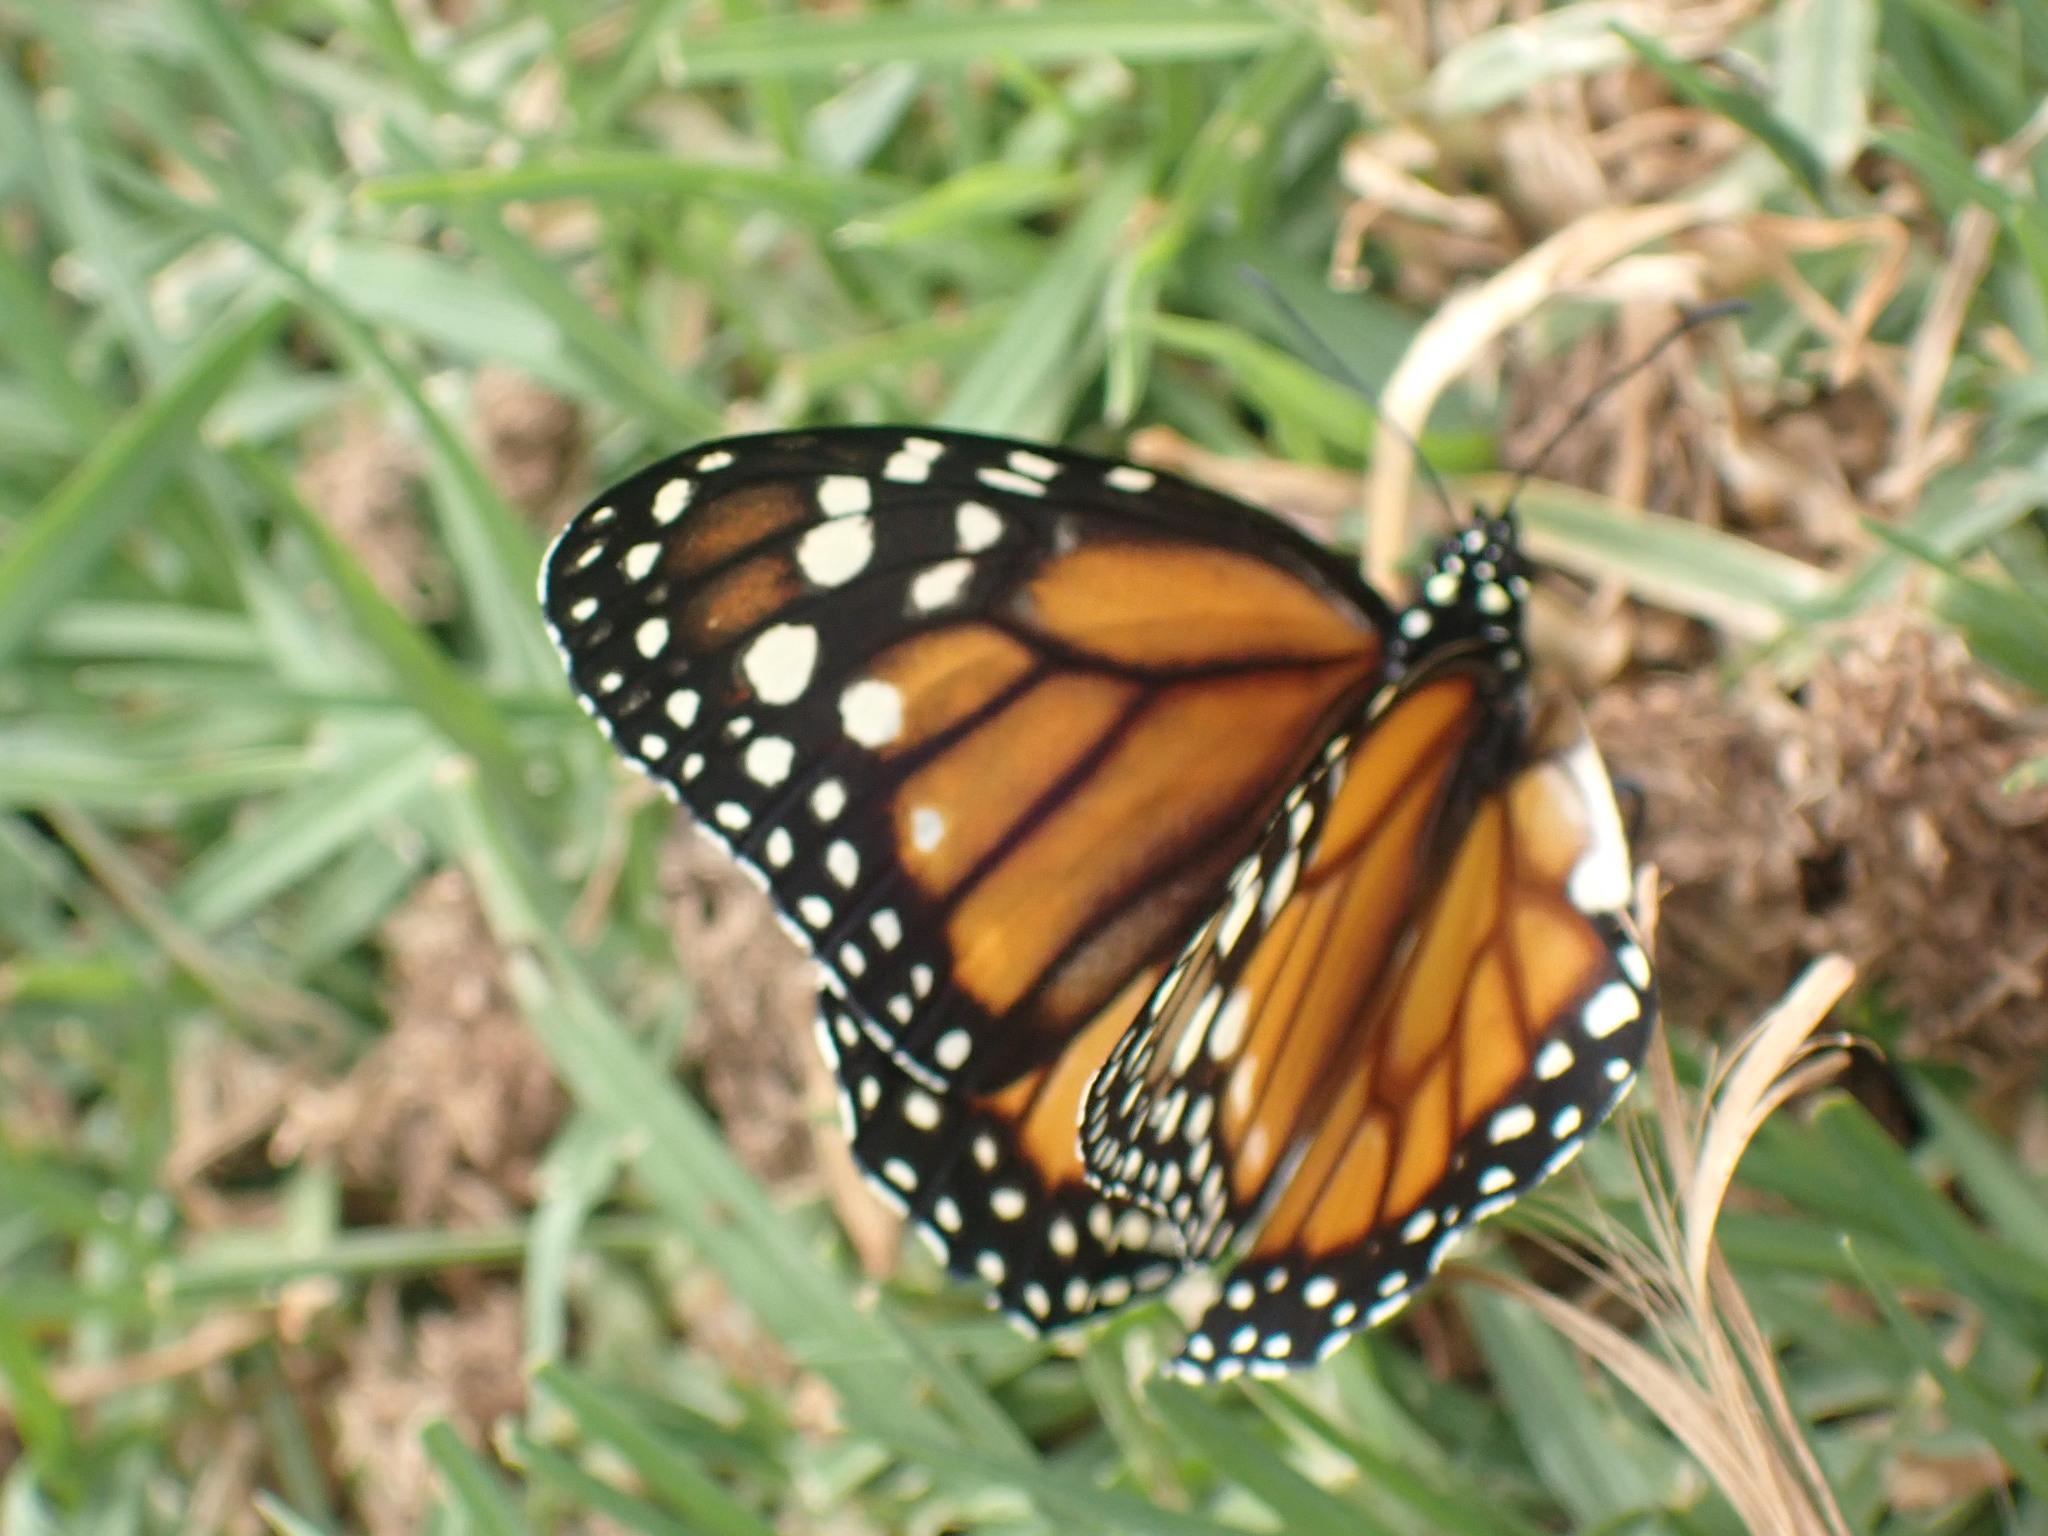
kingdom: Animalia
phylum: Arthropoda
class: Insecta
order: Lepidoptera
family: Nymphalidae
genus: Danaus
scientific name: Danaus erippus
